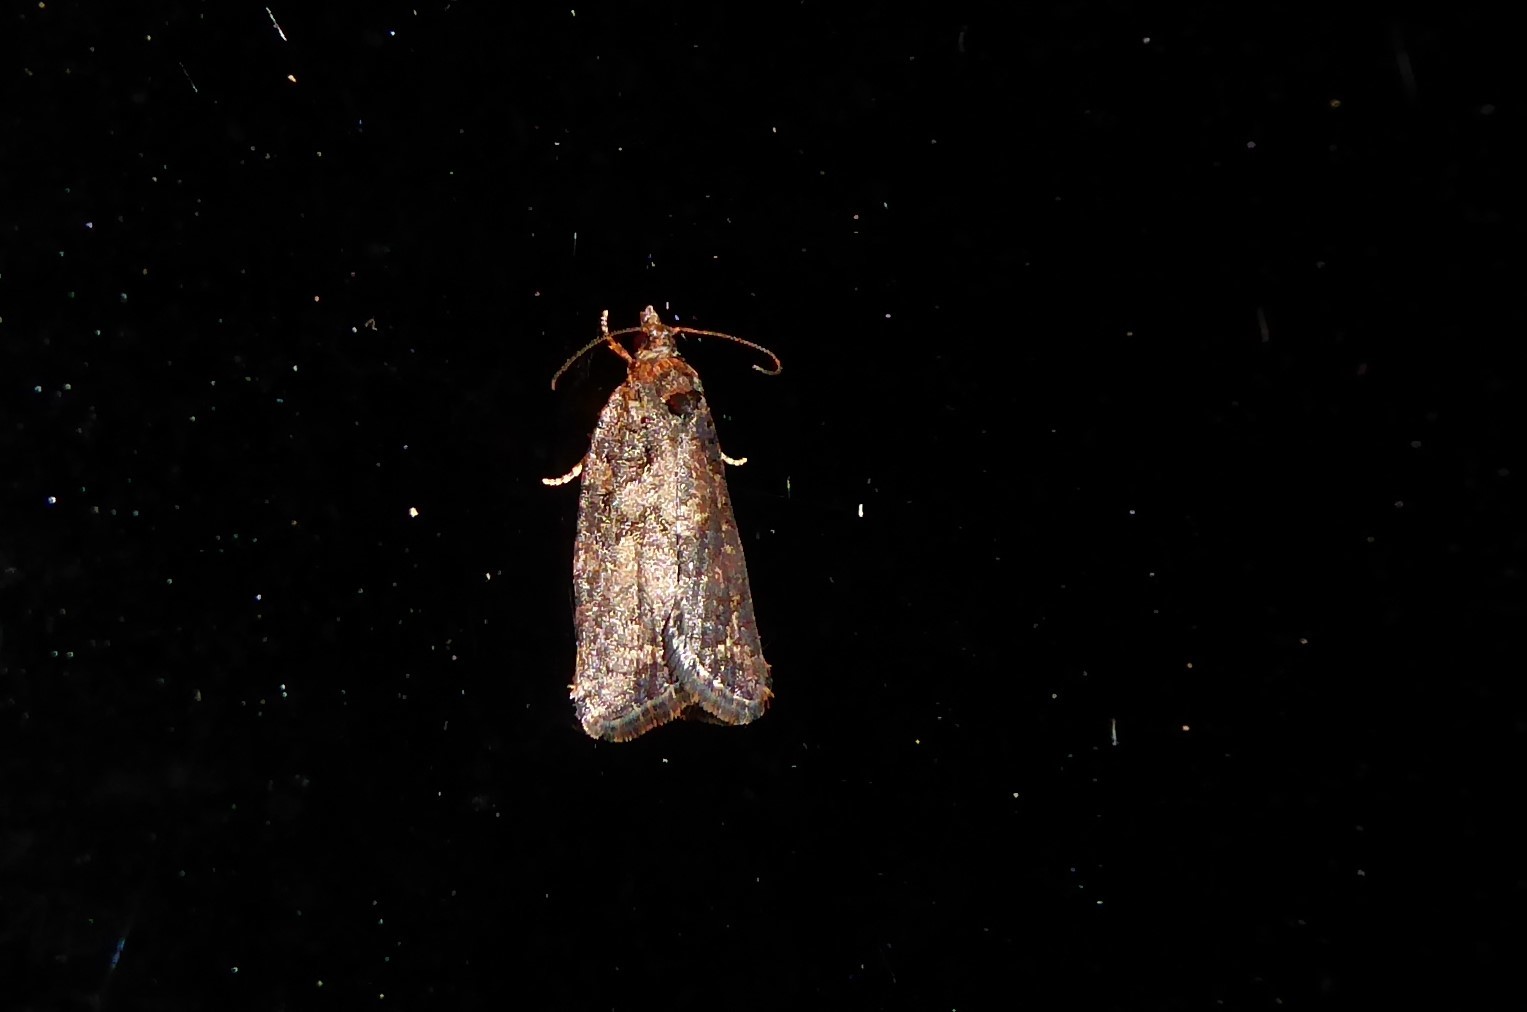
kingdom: Animalia
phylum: Arthropoda
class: Insecta
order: Lepidoptera
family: Tortricidae
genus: Capua
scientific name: Capua intractana
